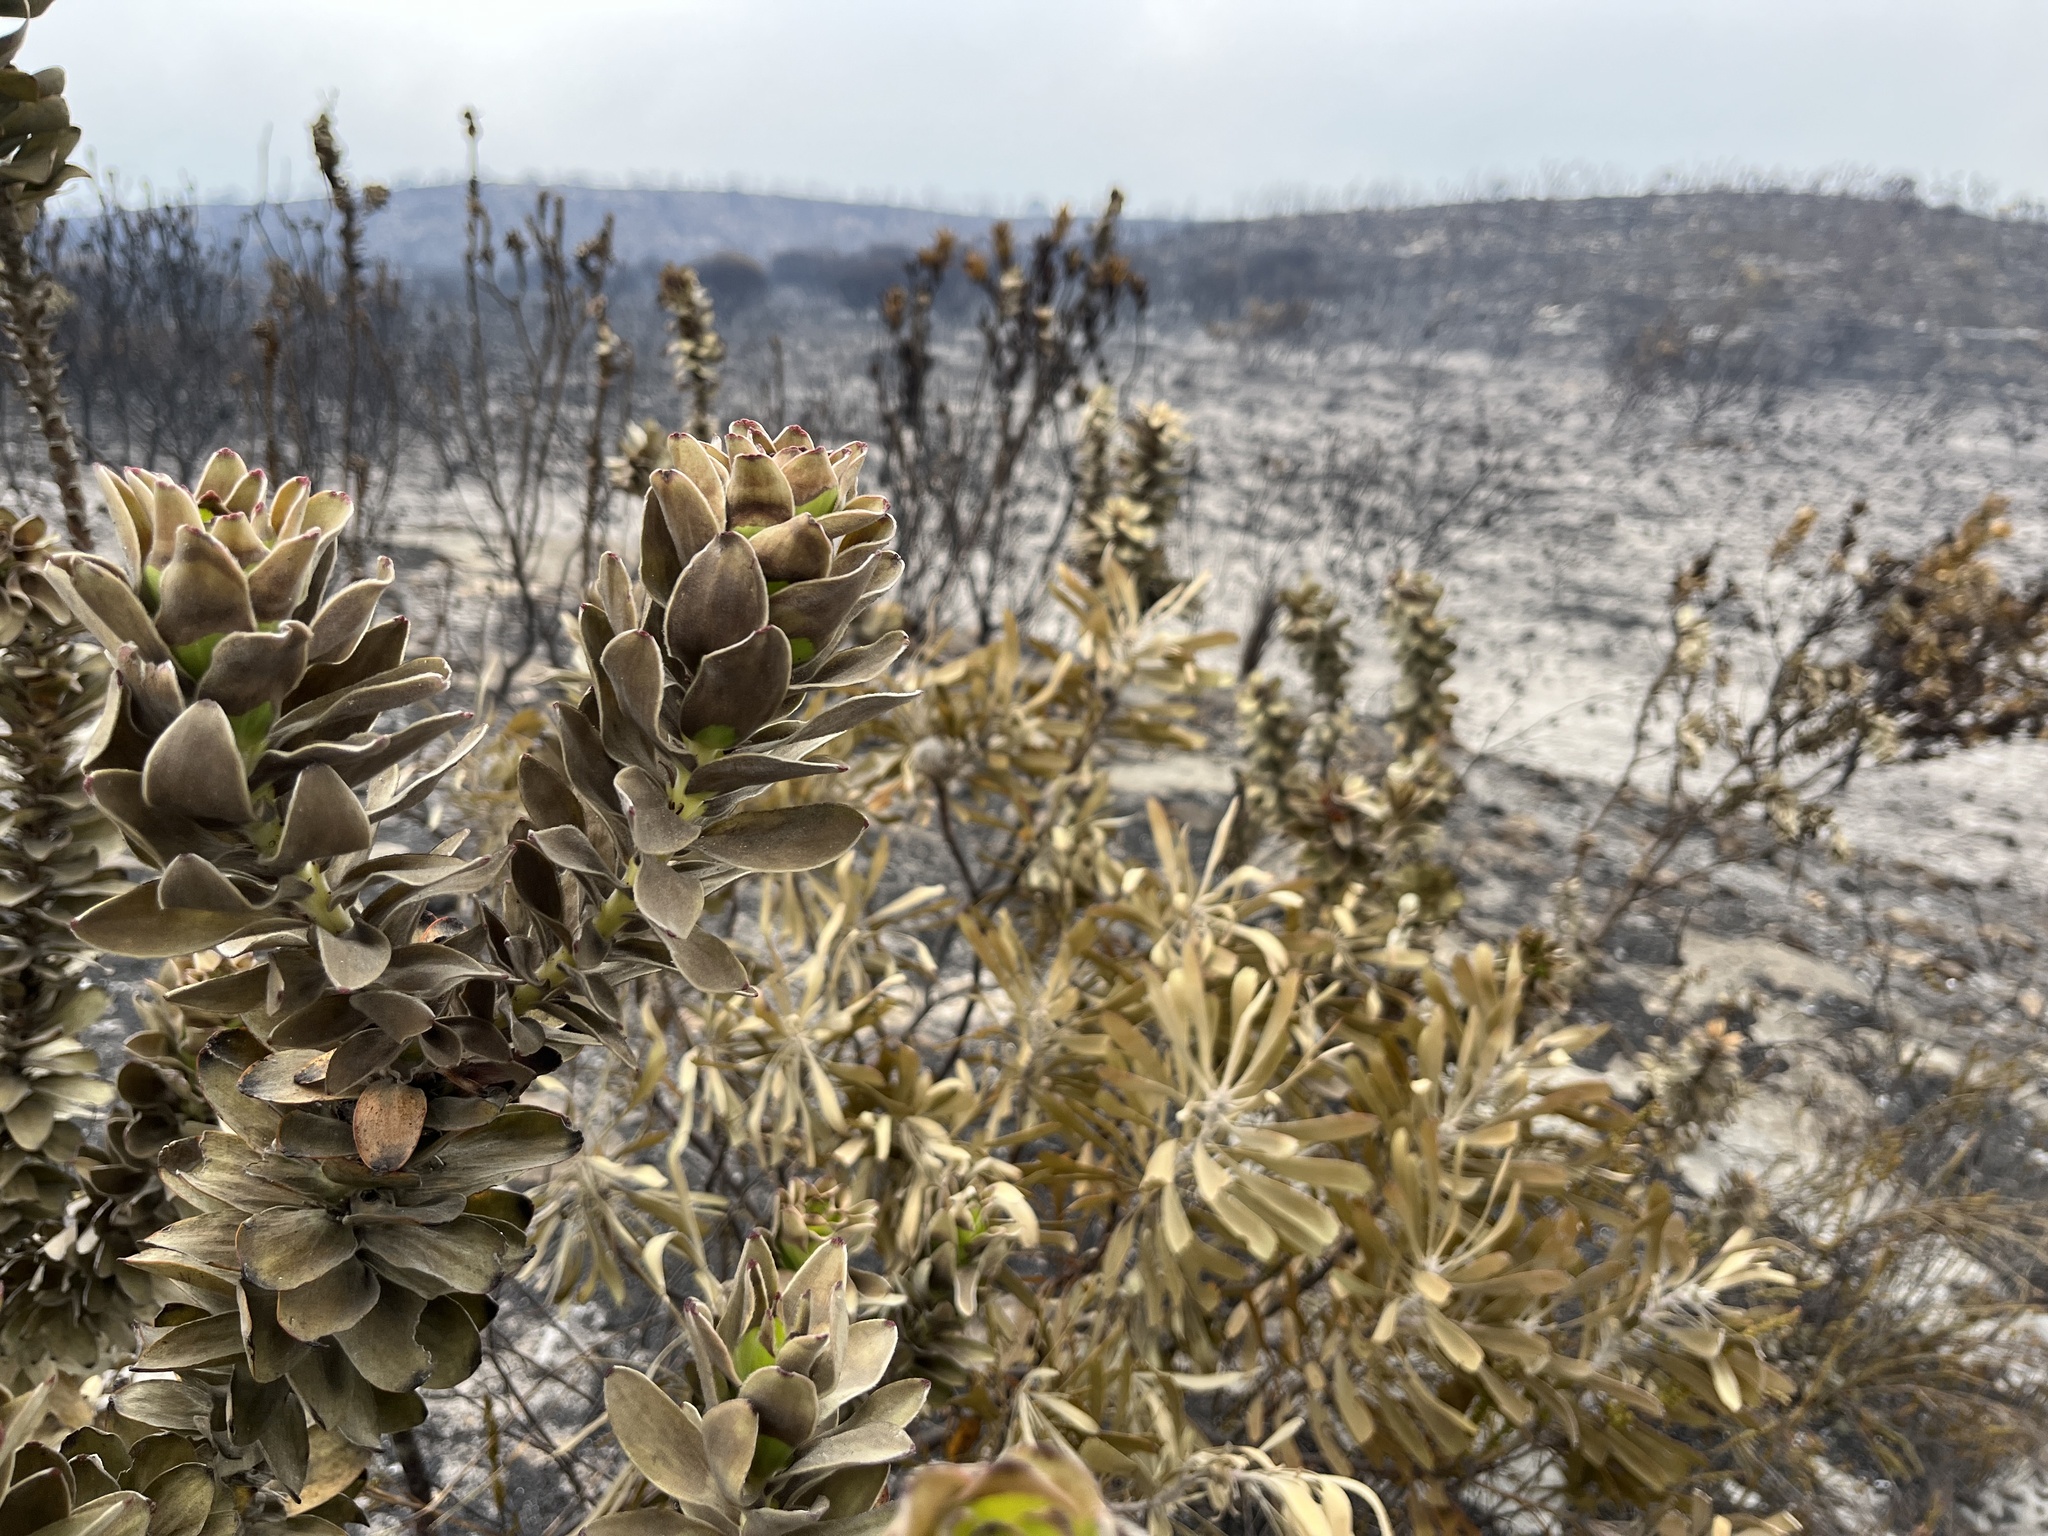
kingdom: Plantae
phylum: Tracheophyta
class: Magnoliopsida
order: Proteales
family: Proteaceae
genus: Mimetes
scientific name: Mimetes saxatilis
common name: Limestone pagoda
